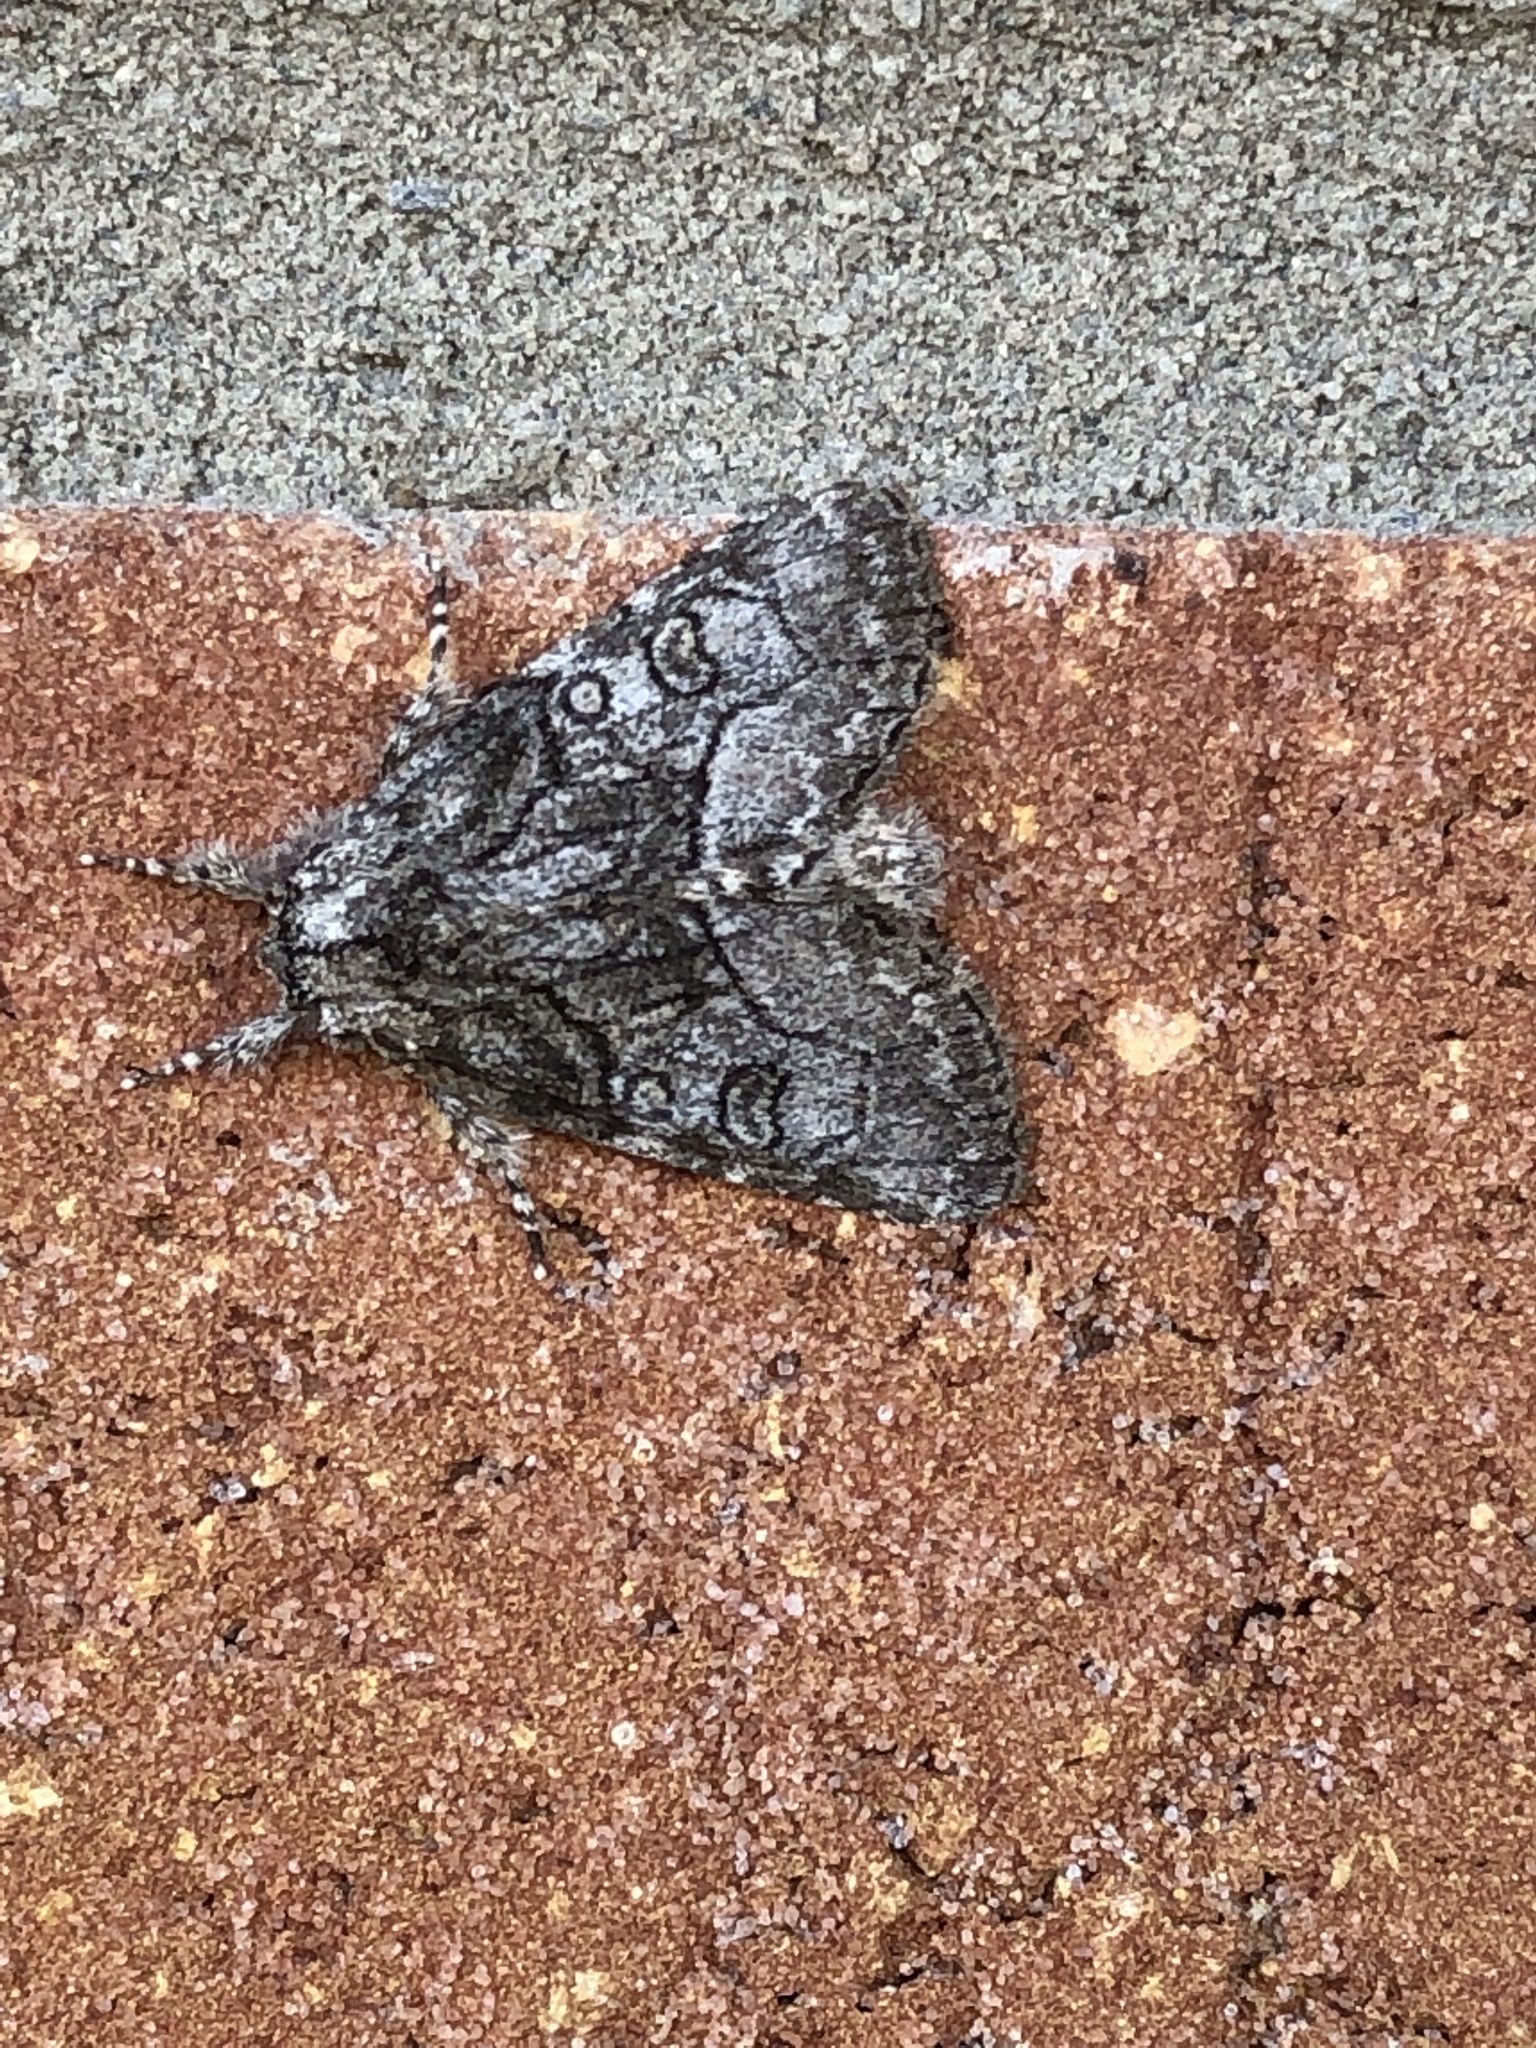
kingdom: Animalia
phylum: Arthropoda
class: Insecta
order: Lepidoptera
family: Noctuidae
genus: Raphia
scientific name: Raphia frater
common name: Brother
